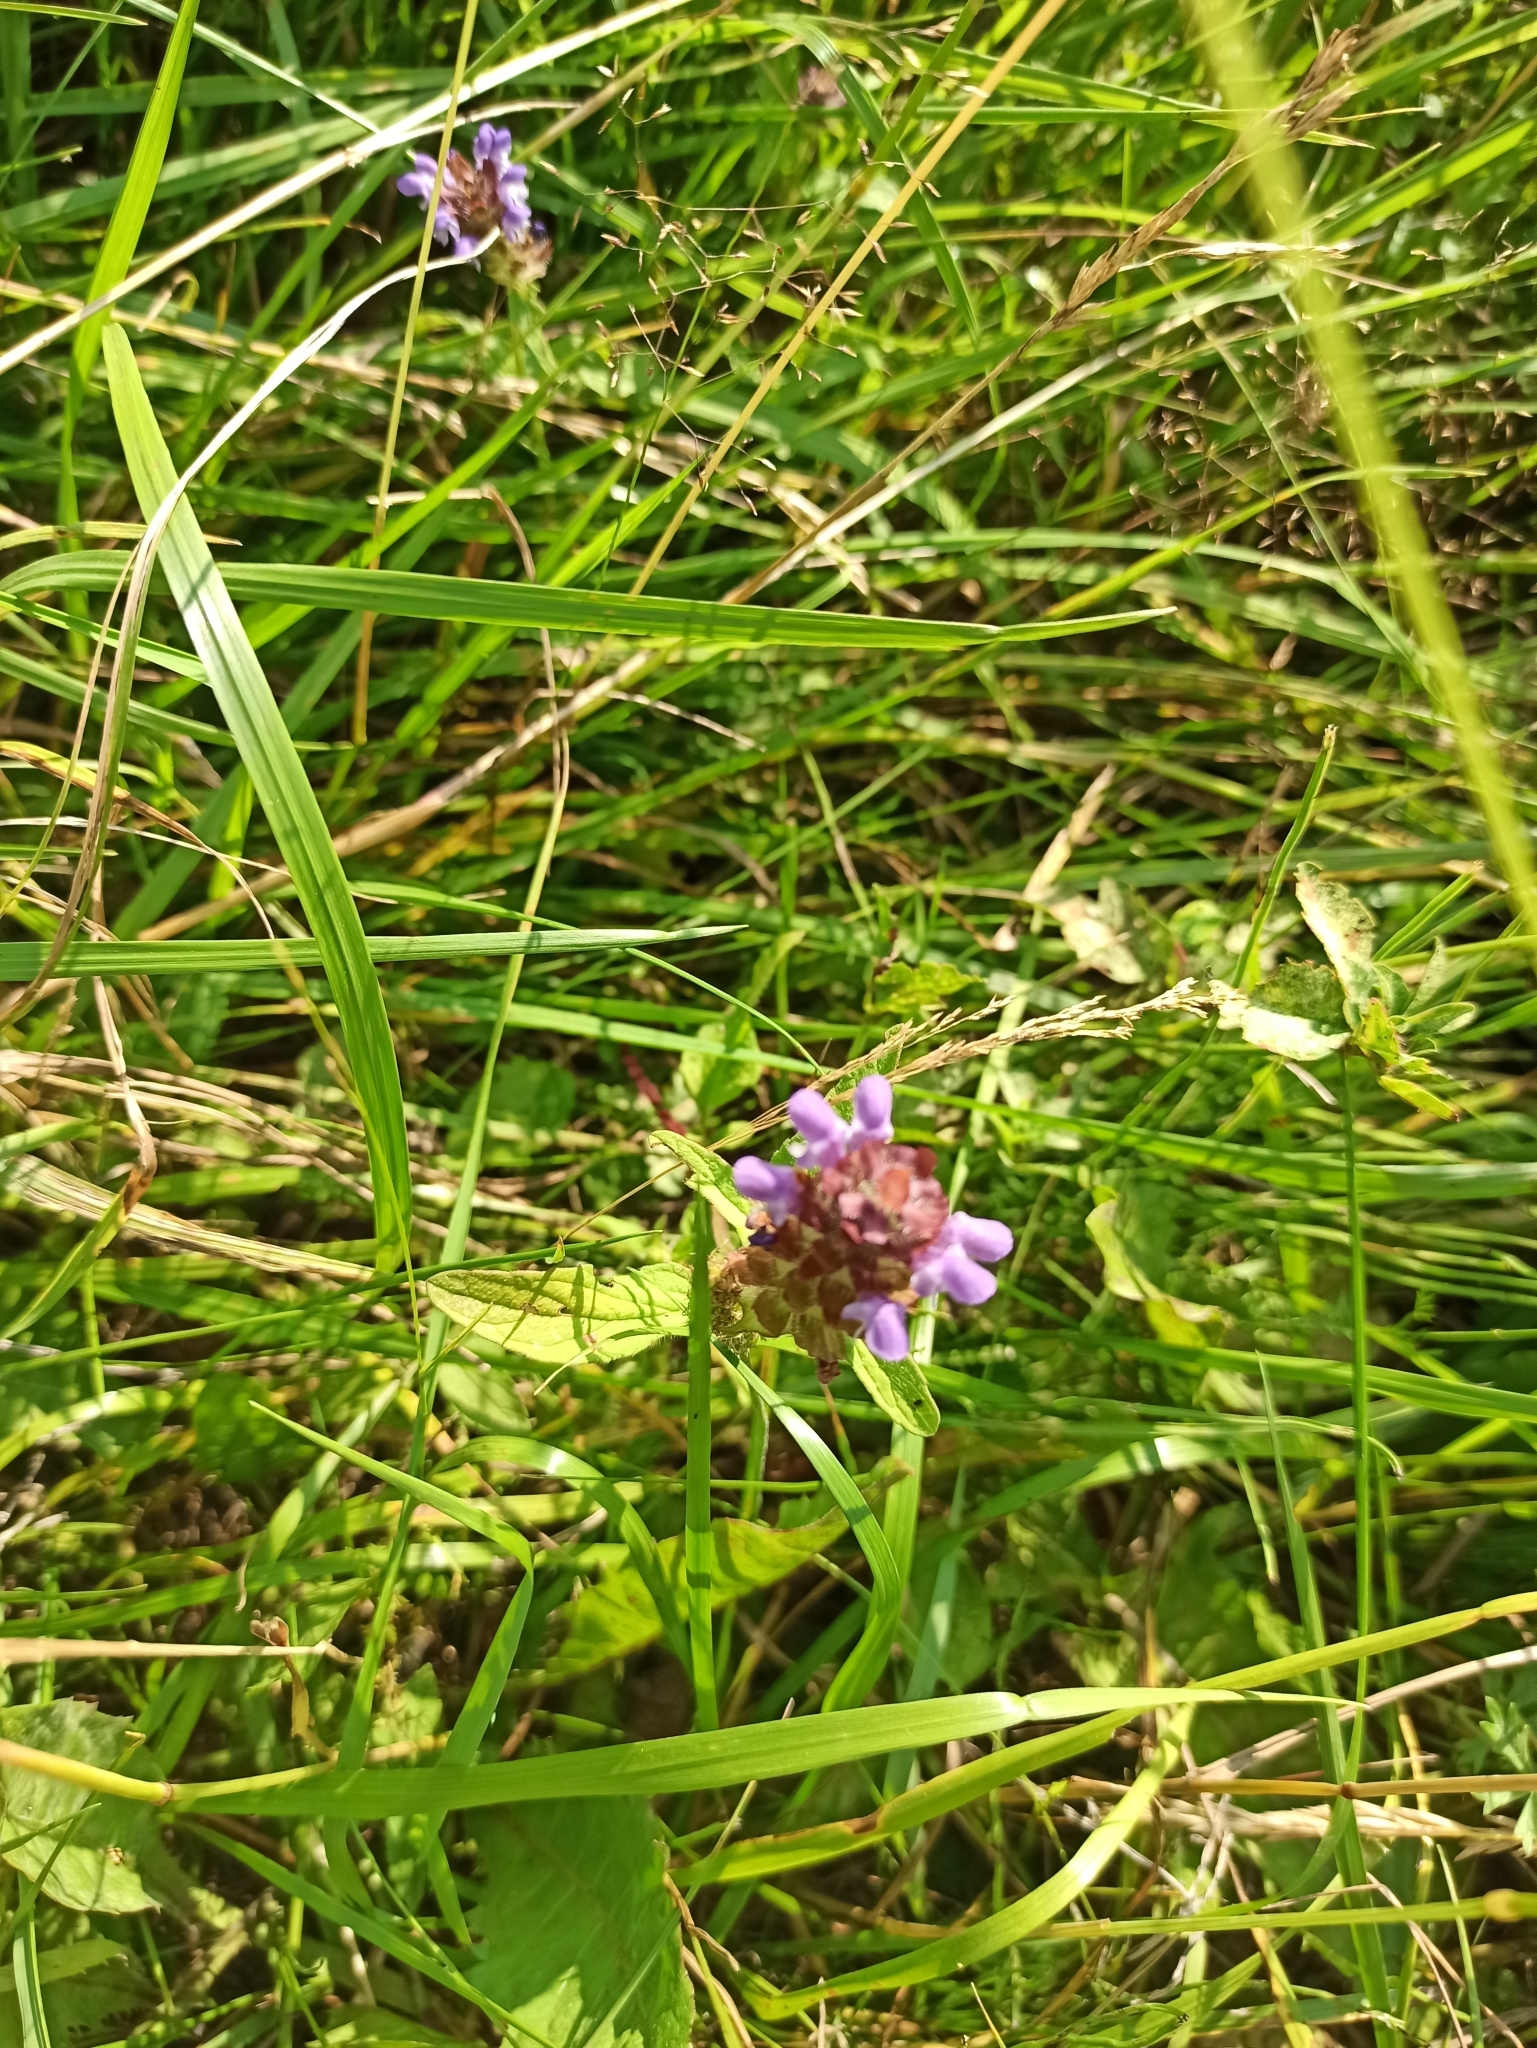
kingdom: Plantae
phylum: Tracheophyta
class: Magnoliopsida
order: Lamiales
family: Lamiaceae
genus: Prunella
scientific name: Prunella vulgaris
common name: Heal-all
